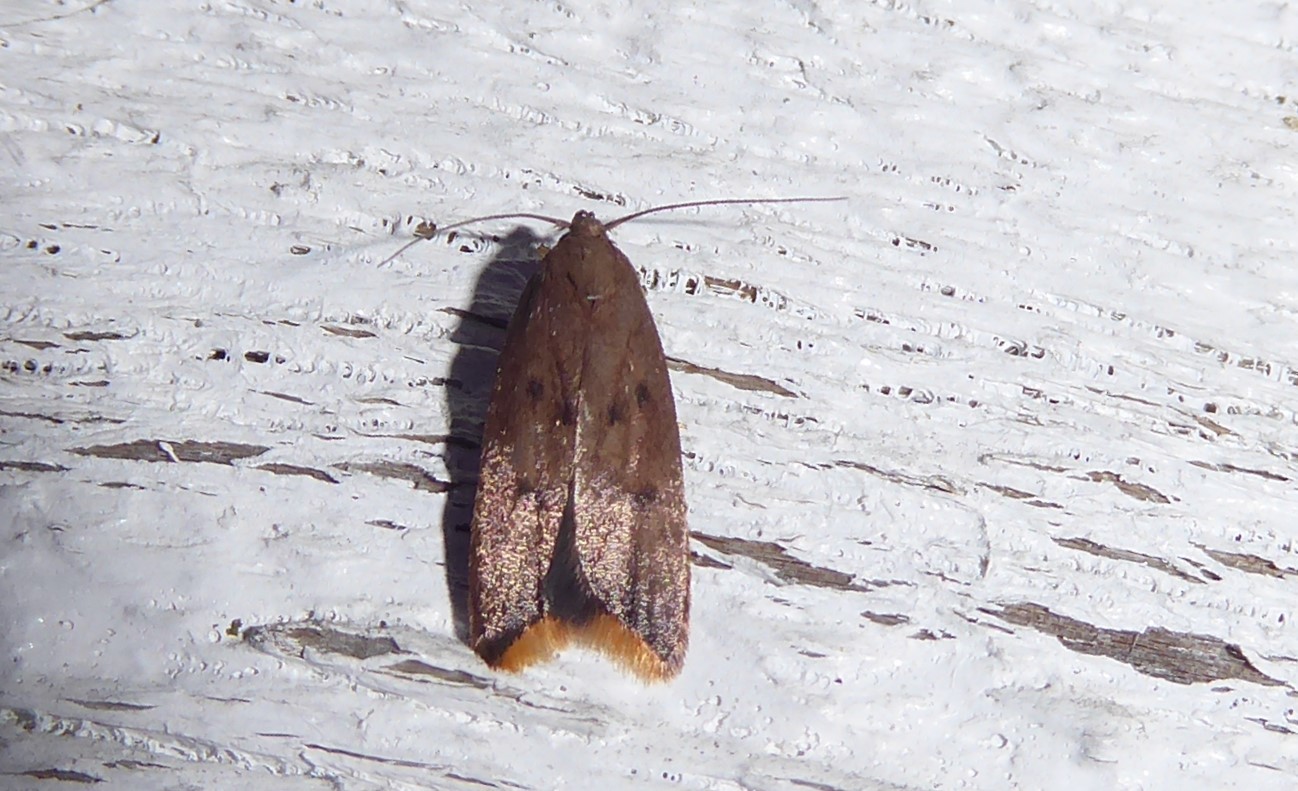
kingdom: Animalia
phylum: Arthropoda
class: Insecta
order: Lepidoptera
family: Oecophoridae
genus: Tachystola
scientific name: Tachystola acroxantha
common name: Ruddy streak
